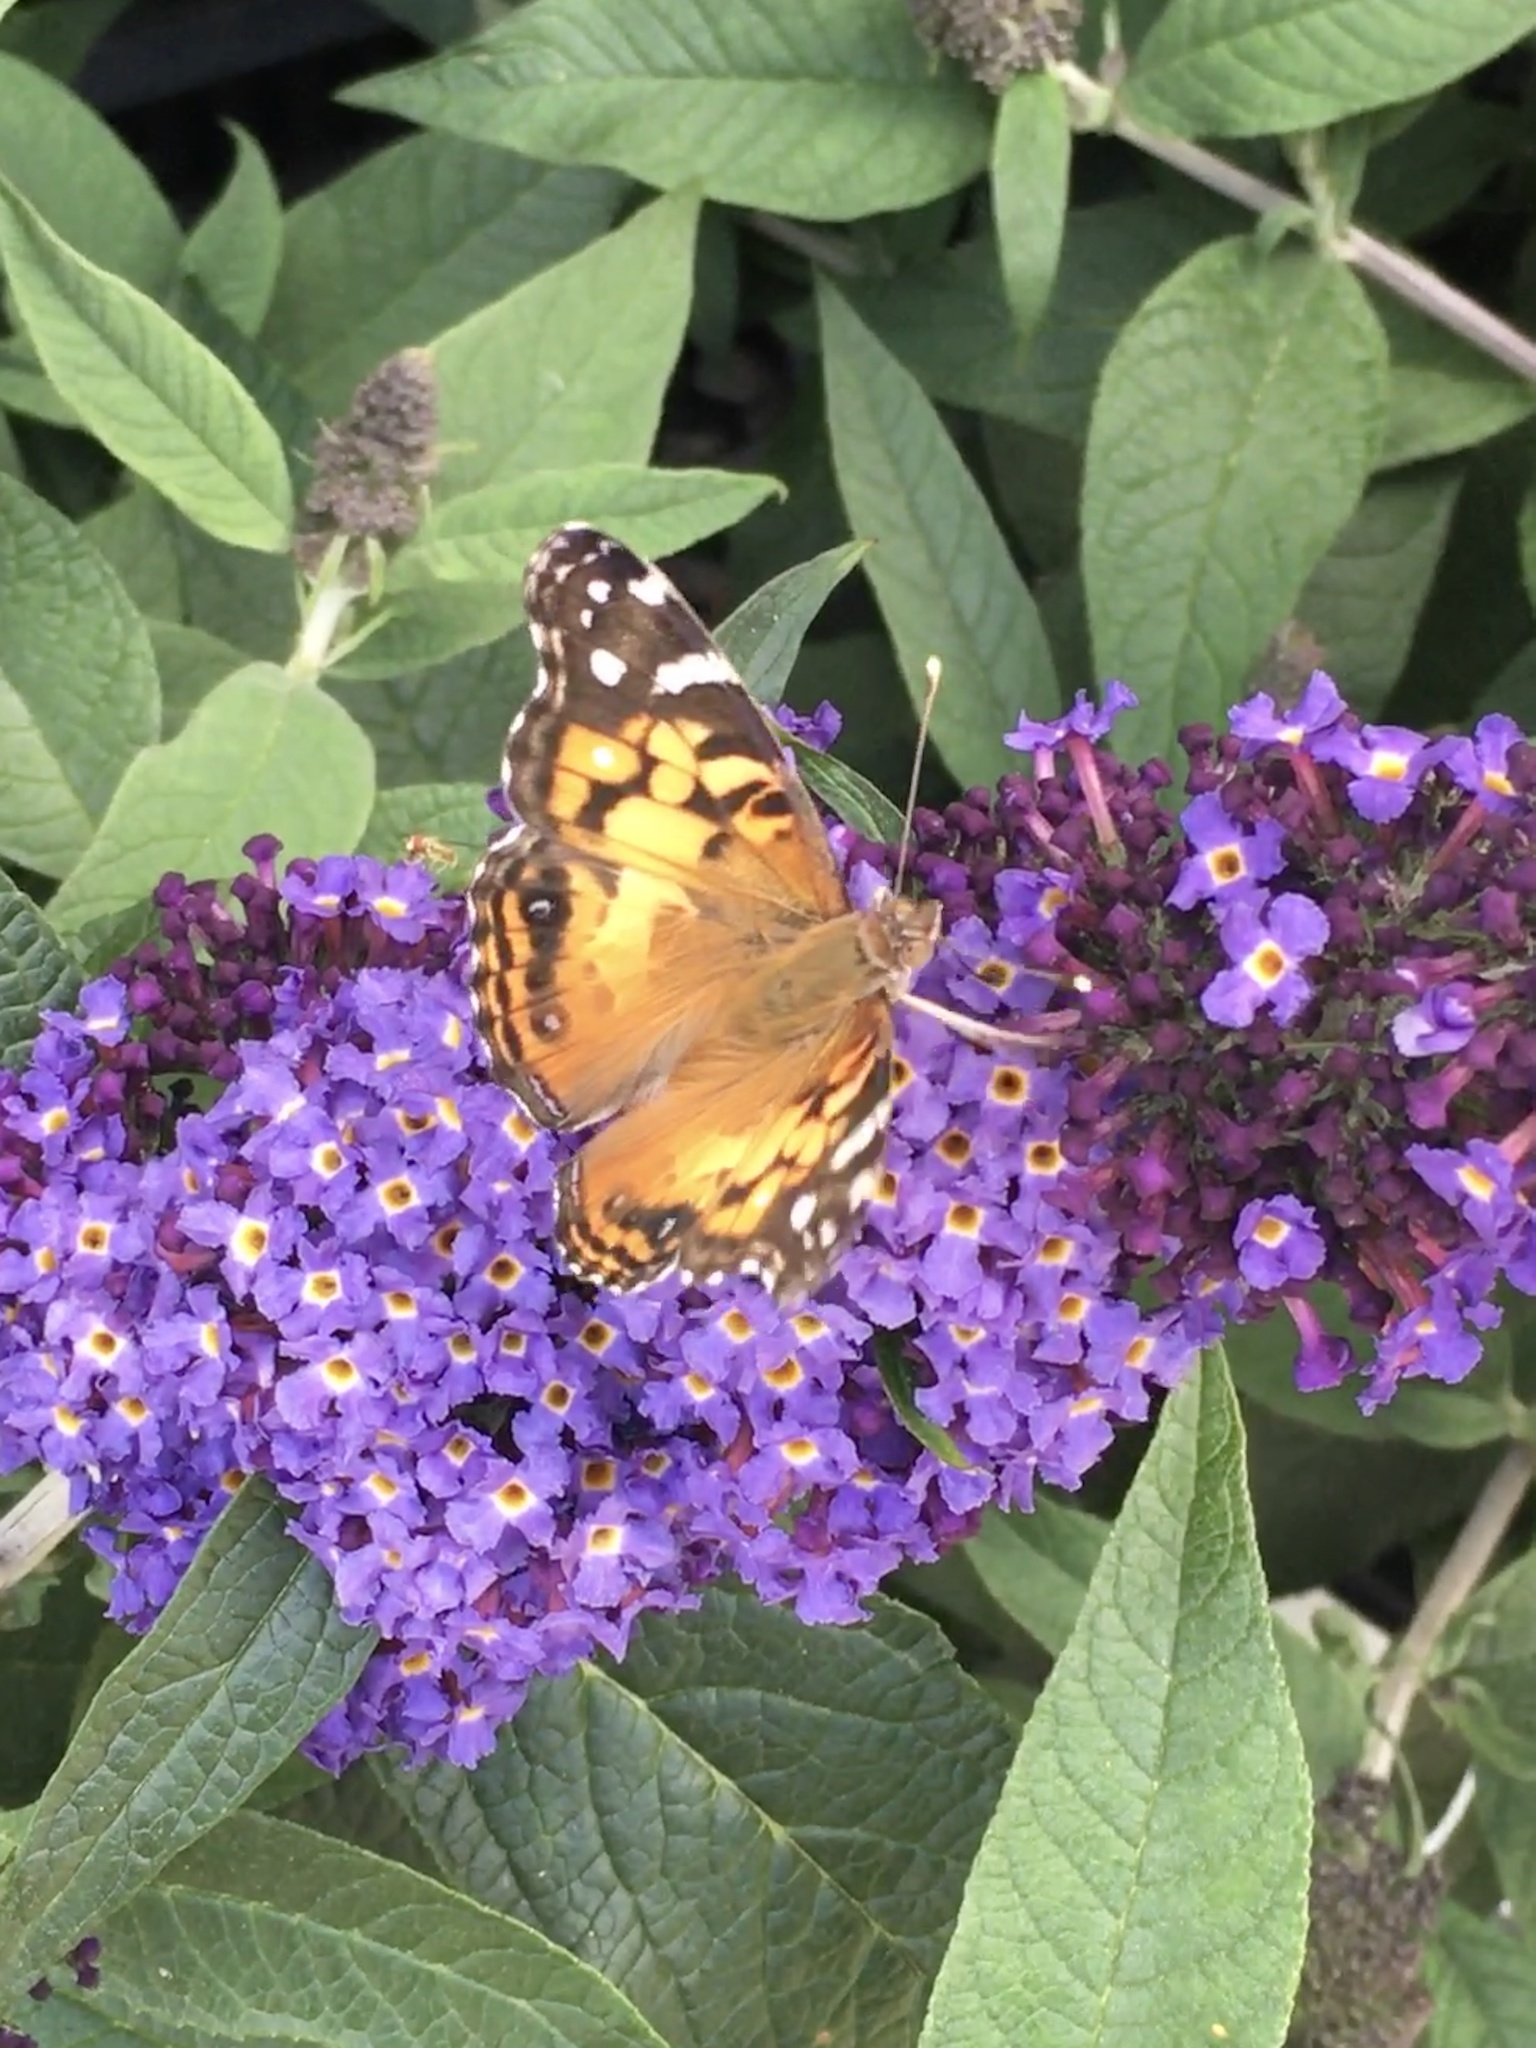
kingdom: Animalia
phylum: Arthropoda
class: Insecta
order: Lepidoptera
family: Nymphalidae
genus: Vanessa
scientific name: Vanessa virginiensis
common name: American lady
